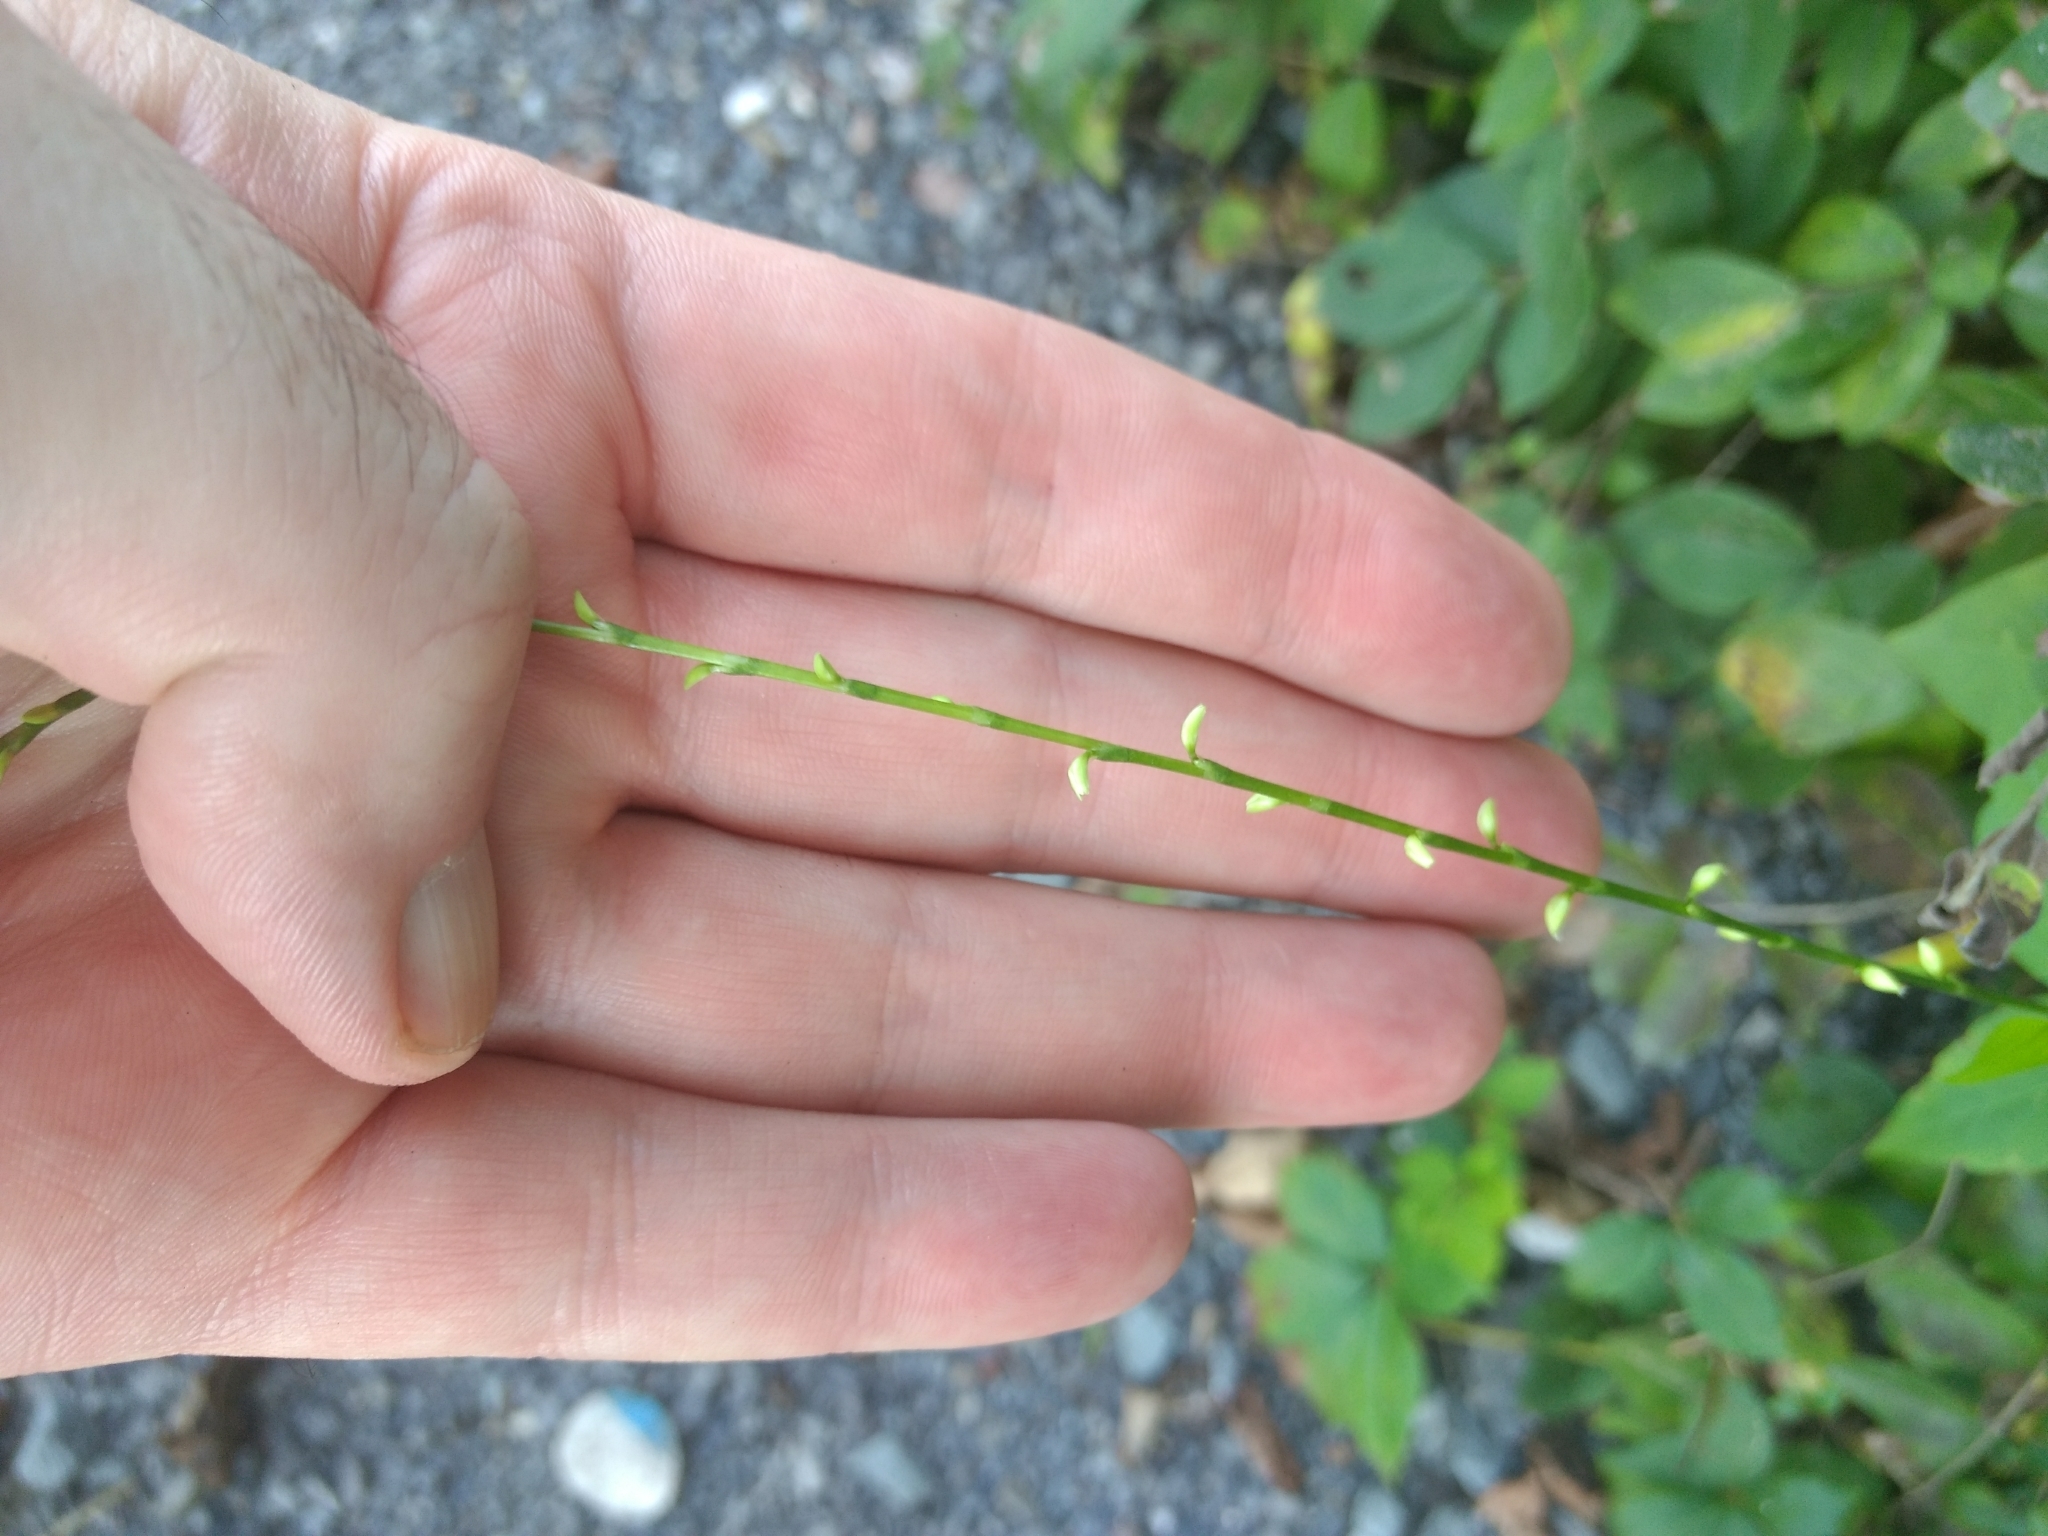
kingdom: Plantae
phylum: Tracheophyta
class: Magnoliopsida
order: Caryophyllales
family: Polygonaceae
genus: Persicaria
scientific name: Persicaria virginiana
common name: Jumpseed
